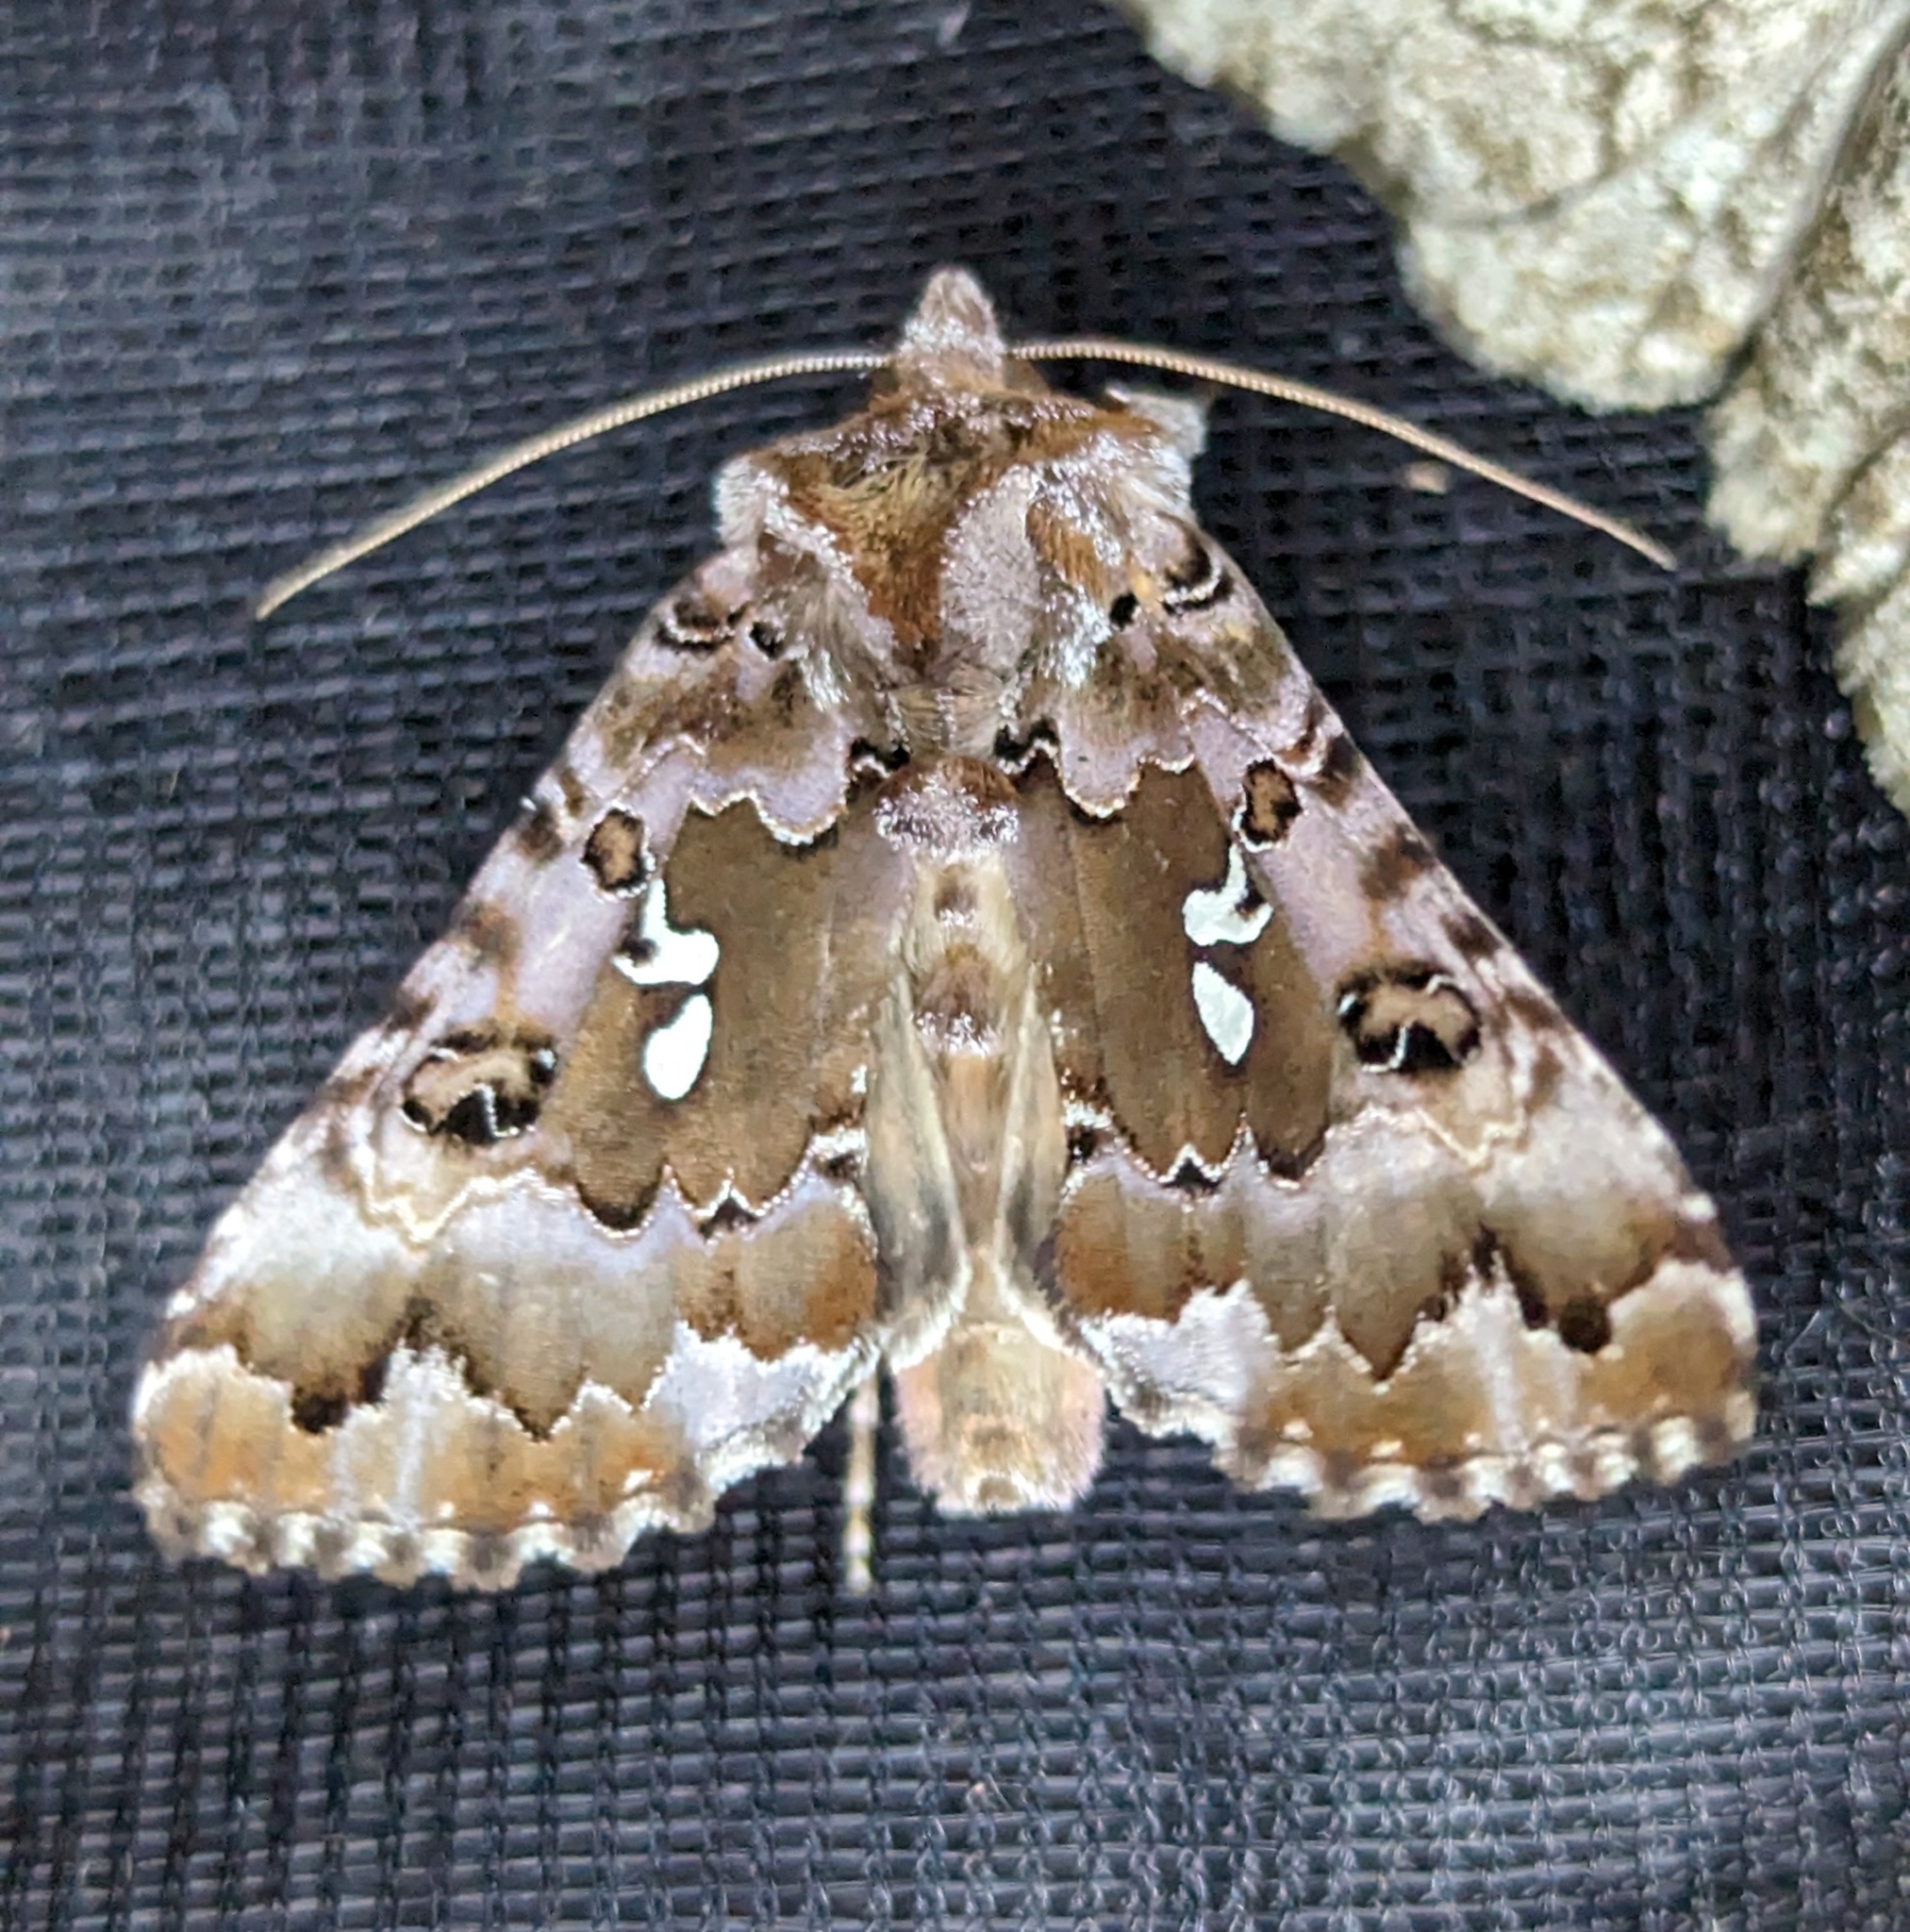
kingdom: Animalia
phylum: Arthropoda
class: Insecta
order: Lepidoptera
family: Noctuidae
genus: Autographa
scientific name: Autographa corusca
